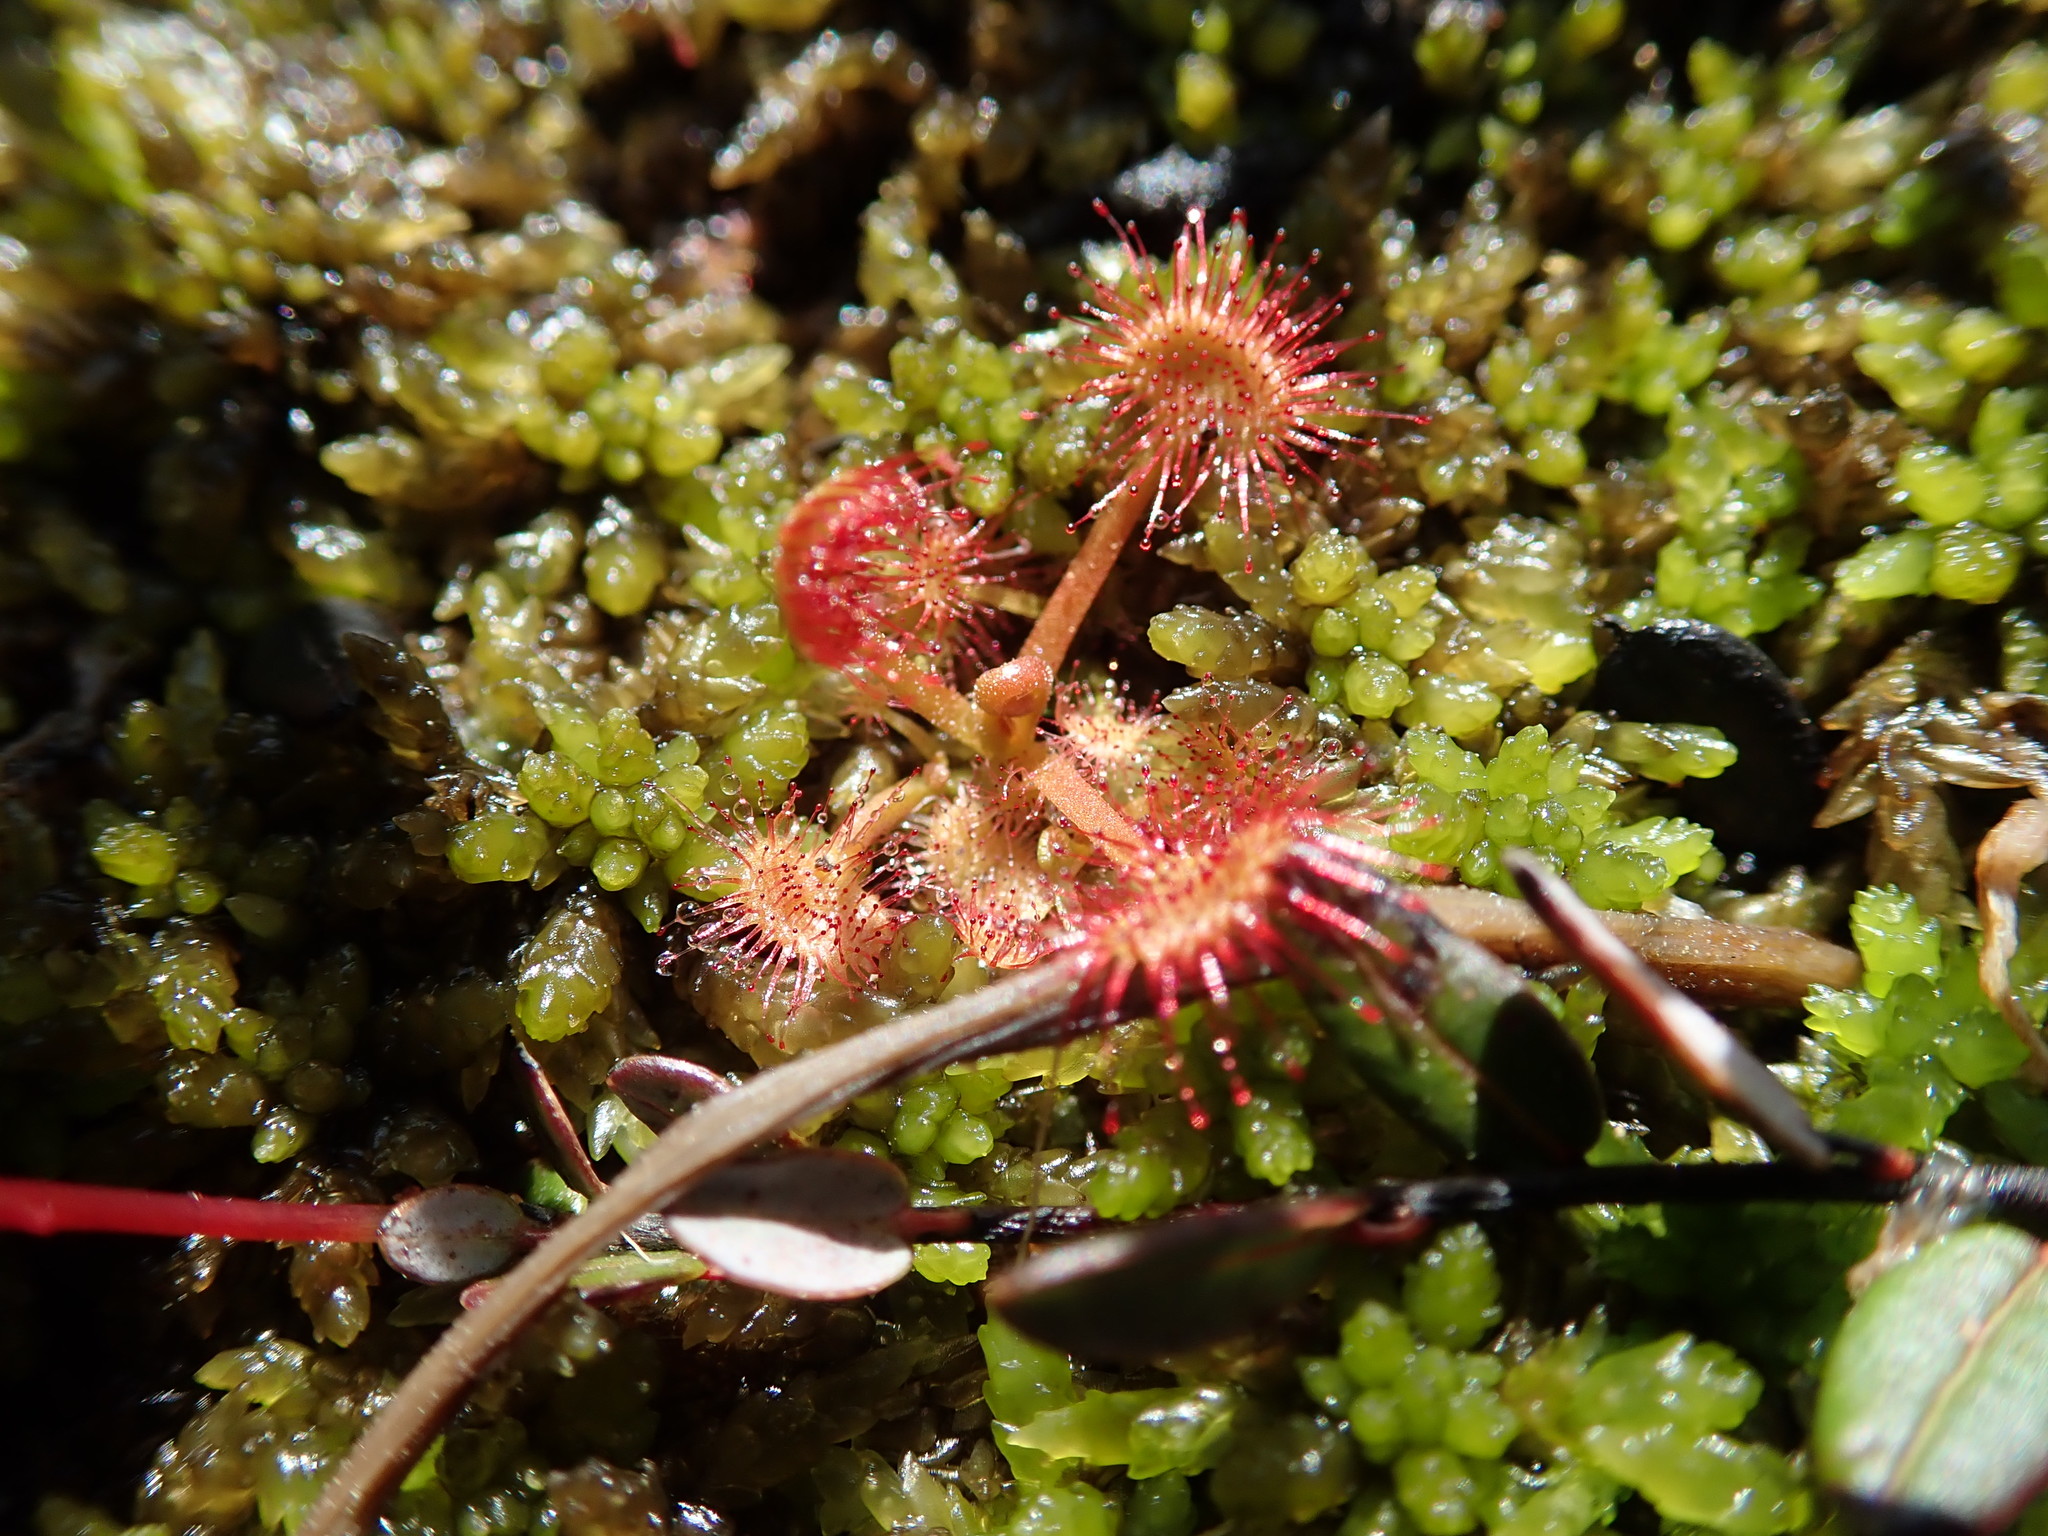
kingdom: Plantae
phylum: Tracheophyta
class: Magnoliopsida
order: Caryophyllales
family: Droseraceae
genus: Drosera
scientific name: Drosera rotundifolia
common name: Round-leaved sundew
